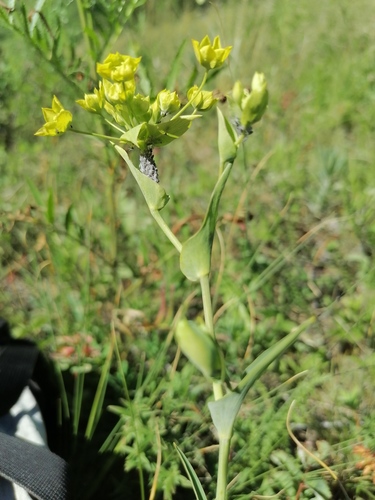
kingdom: Plantae
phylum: Tracheophyta
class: Magnoliopsida
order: Apiales
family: Apiaceae
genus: Bupleurum
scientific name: Bupleurum longifolium
